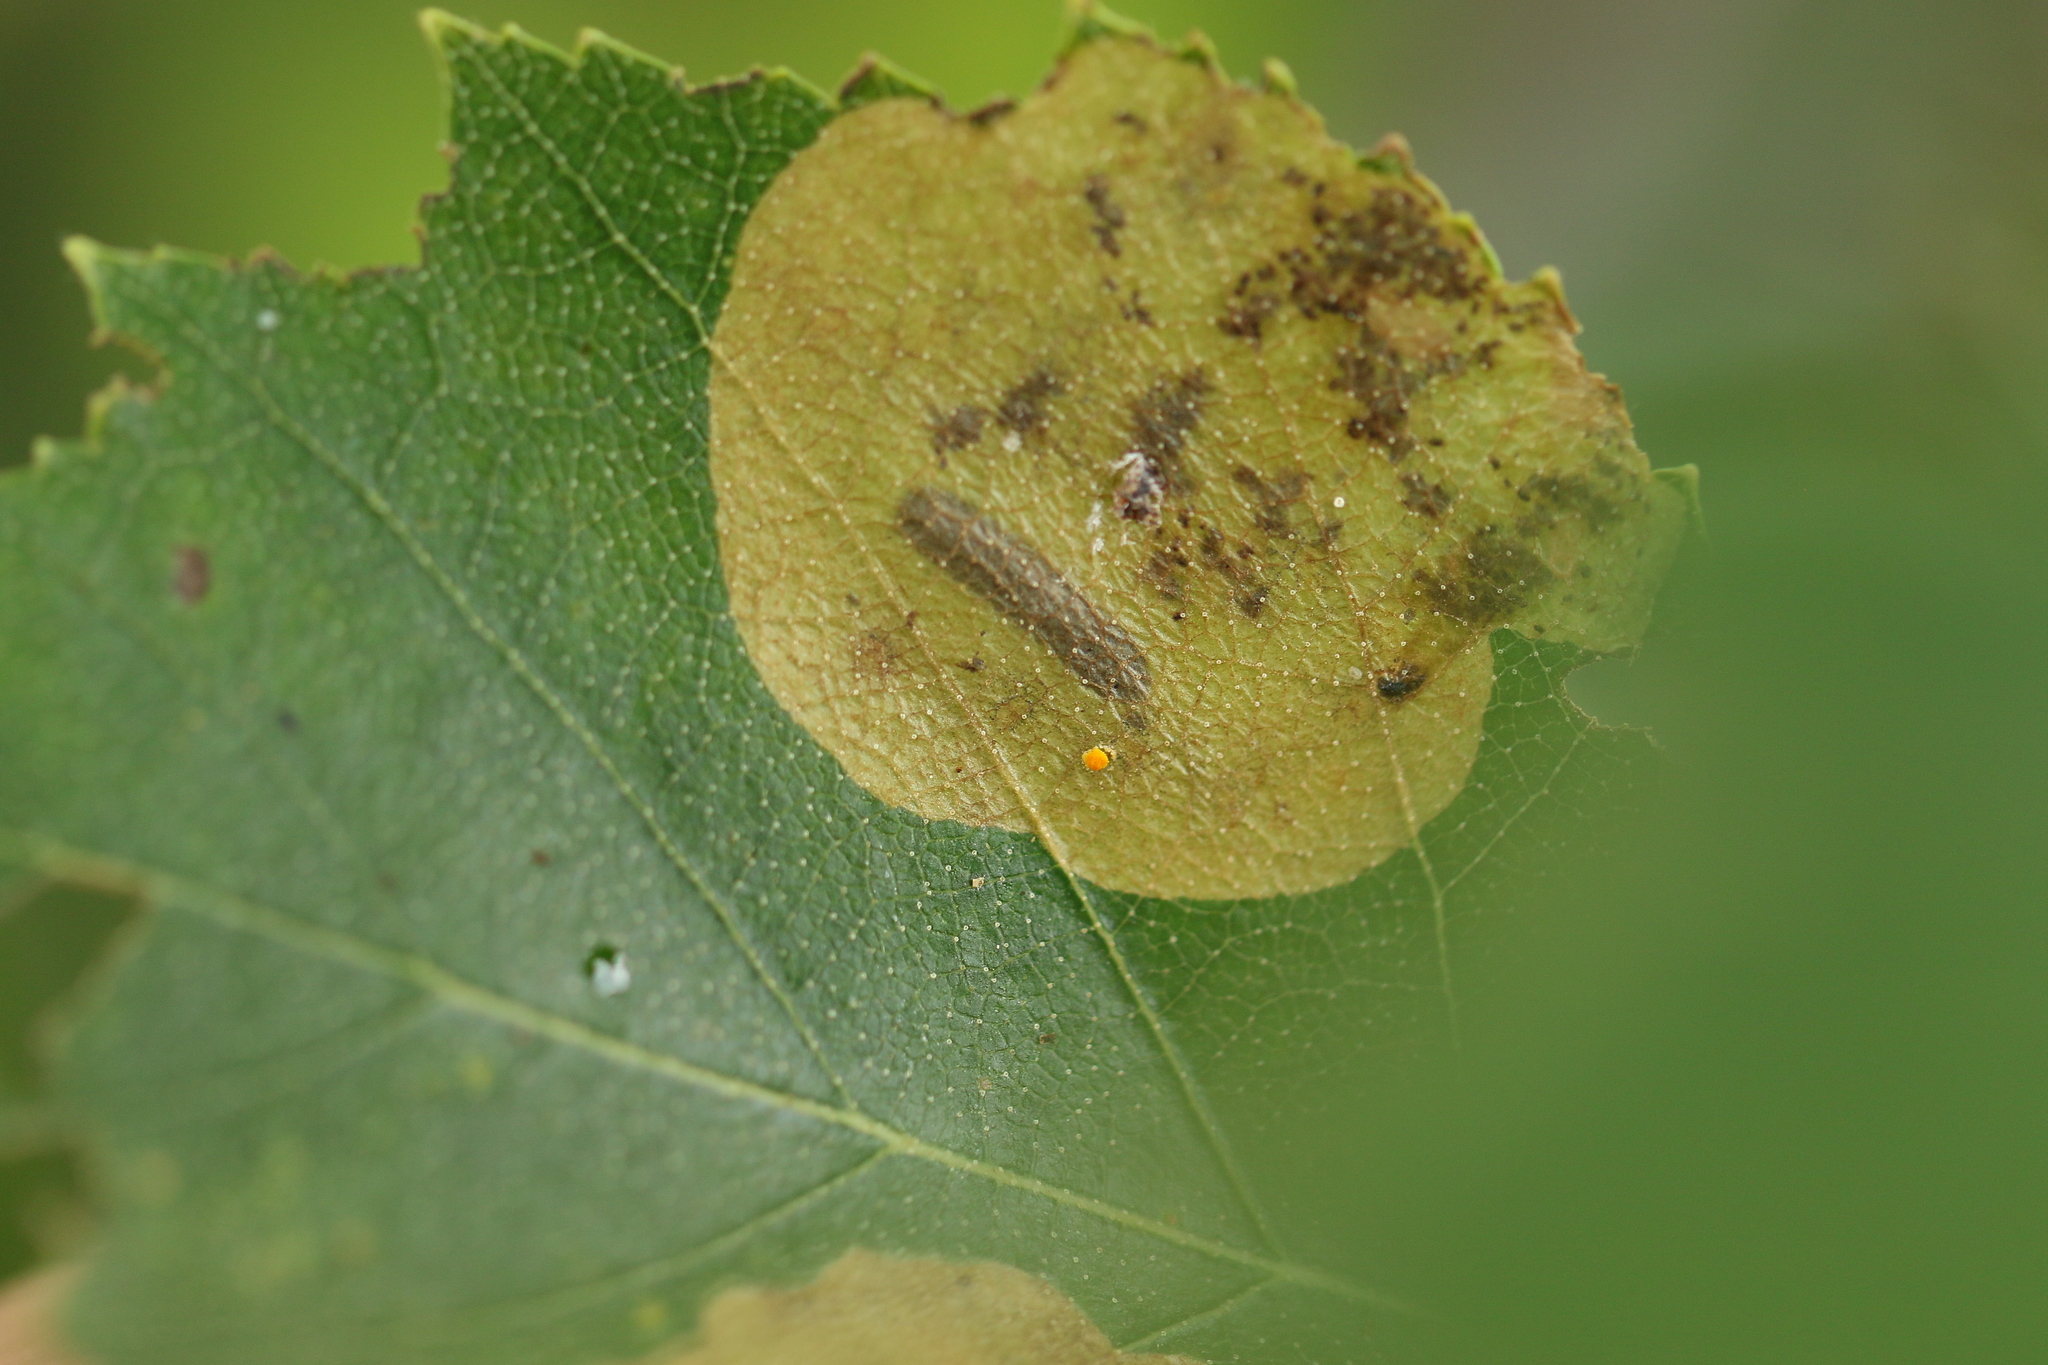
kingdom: Animalia
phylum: Arthropoda
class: Insecta
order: Hymenoptera
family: Tenthredinidae
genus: Fenusella
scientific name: Fenusella nana
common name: Early birch leaf edgeminer
